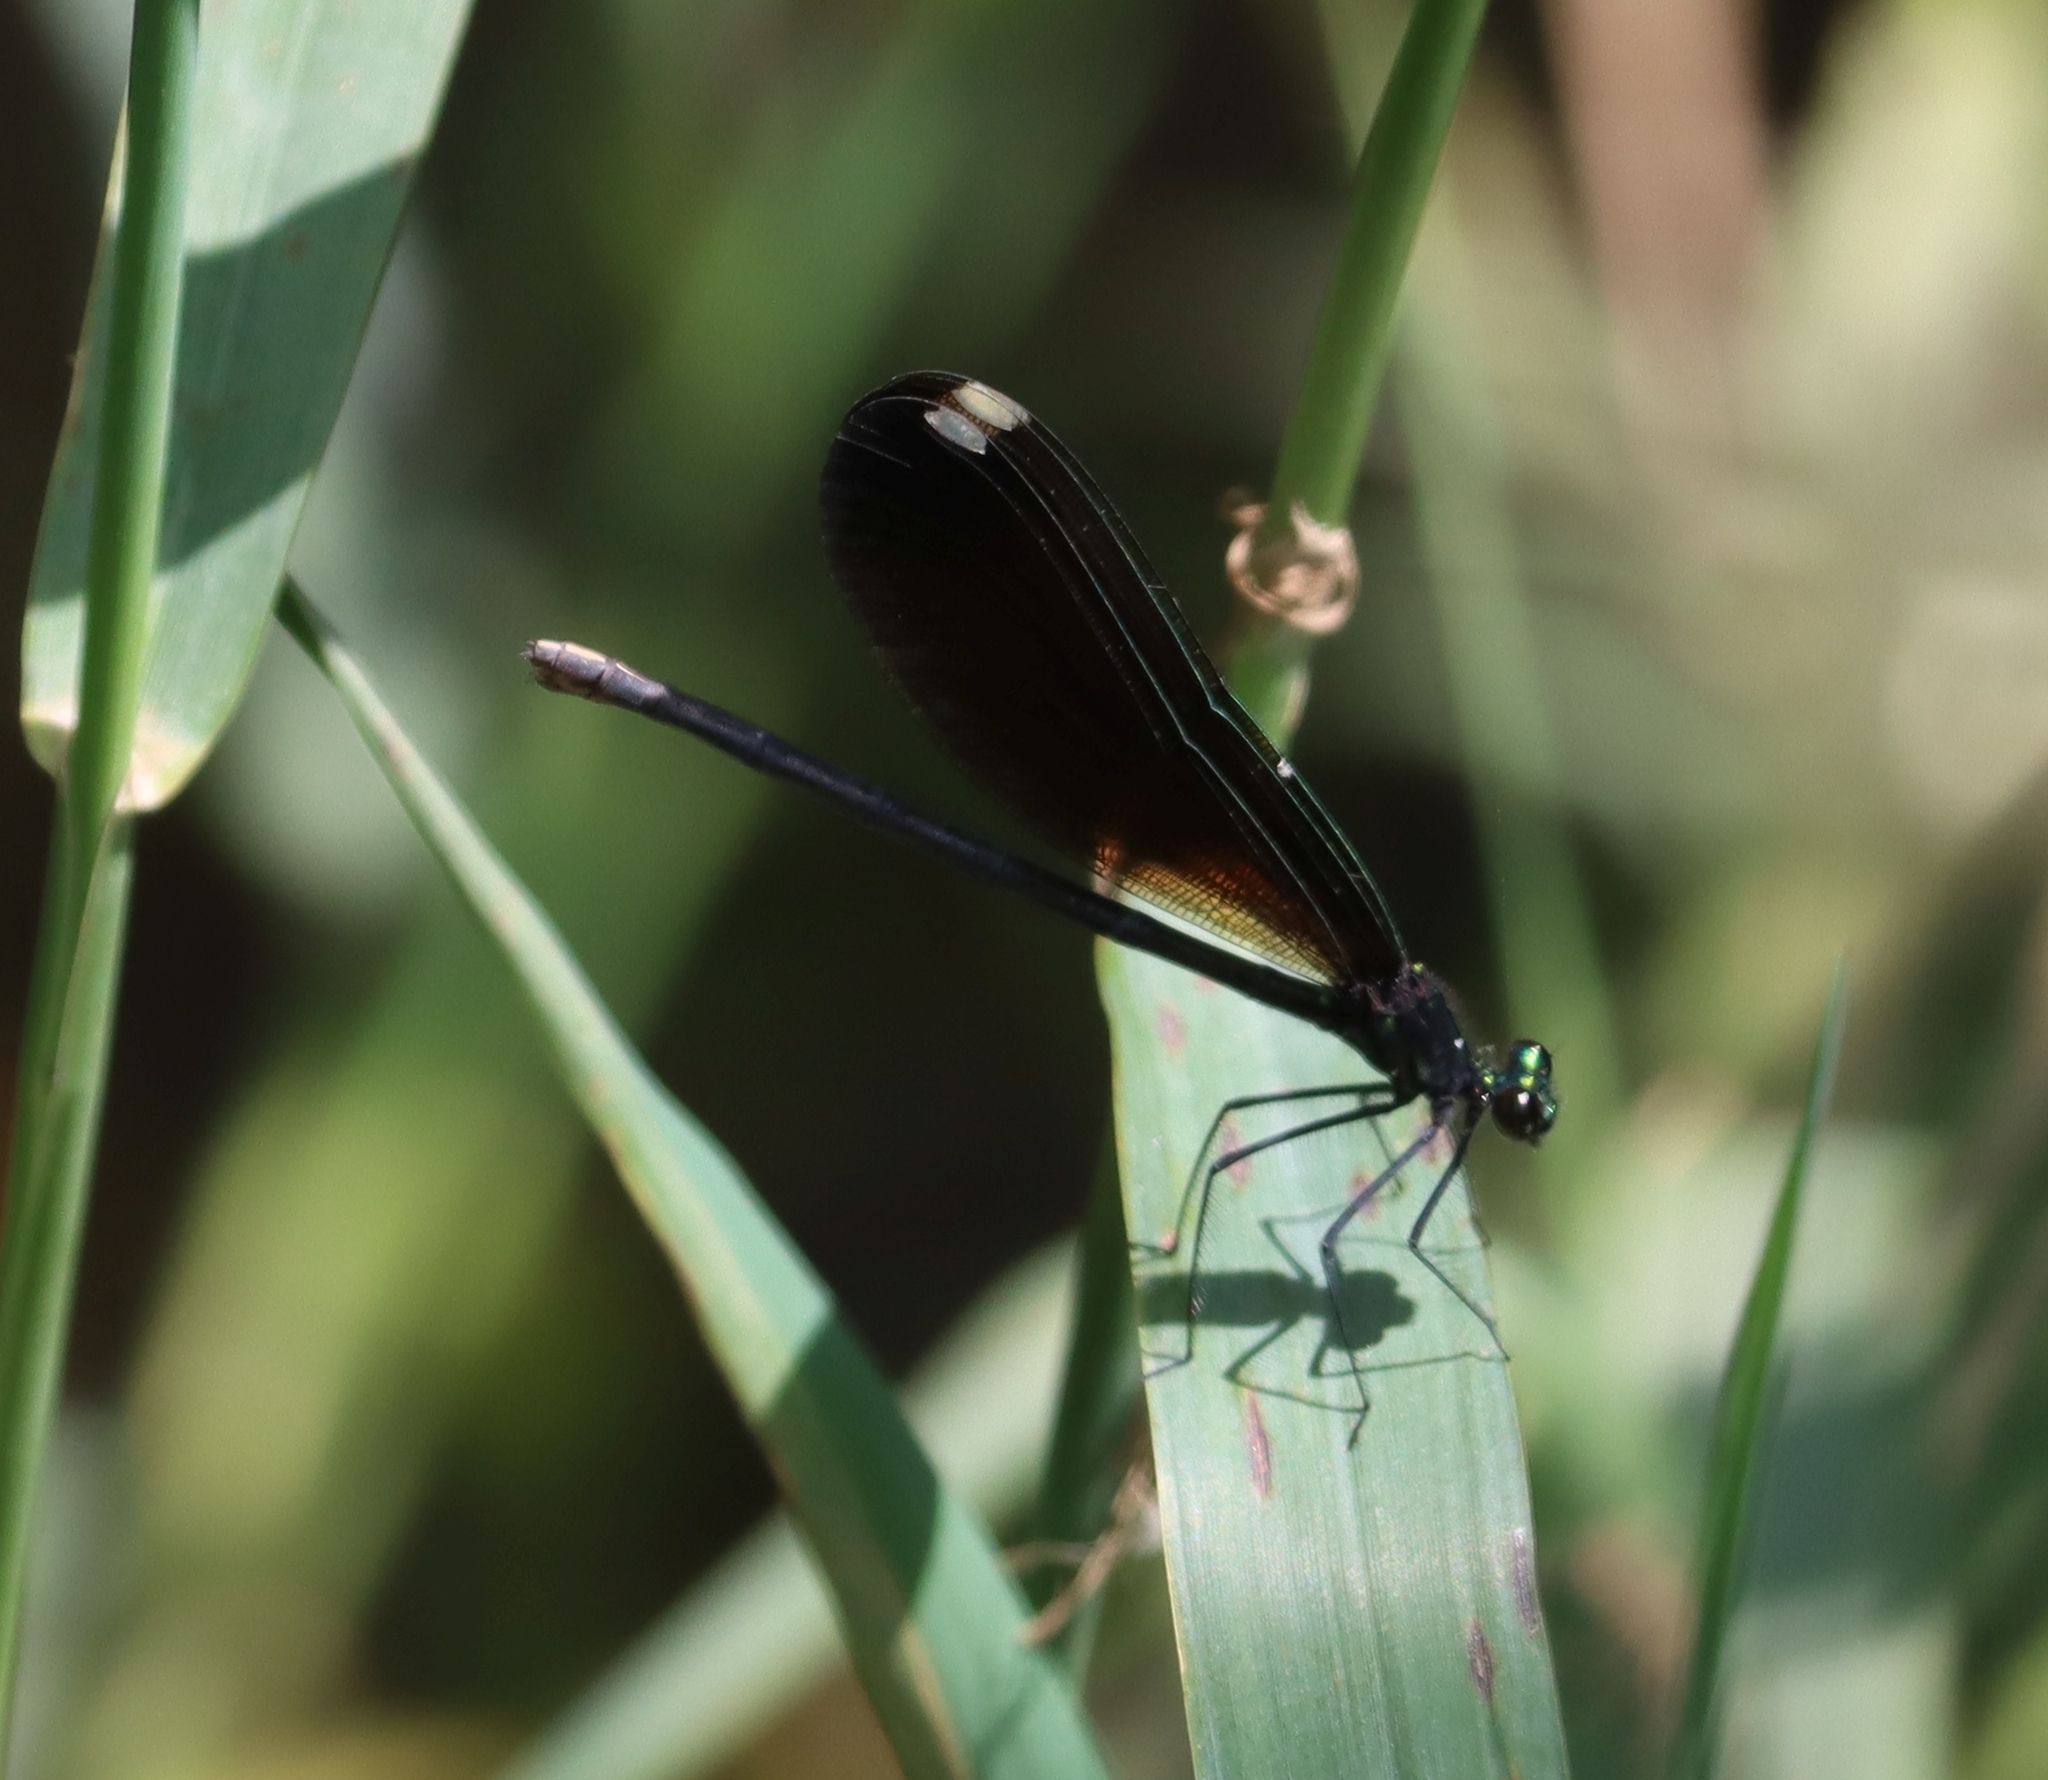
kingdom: Animalia
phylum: Arthropoda
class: Insecta
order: Odonata
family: Calopterygidae
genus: Calopteryx
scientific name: Calopteryx maculata
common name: Ebony jewelwing
